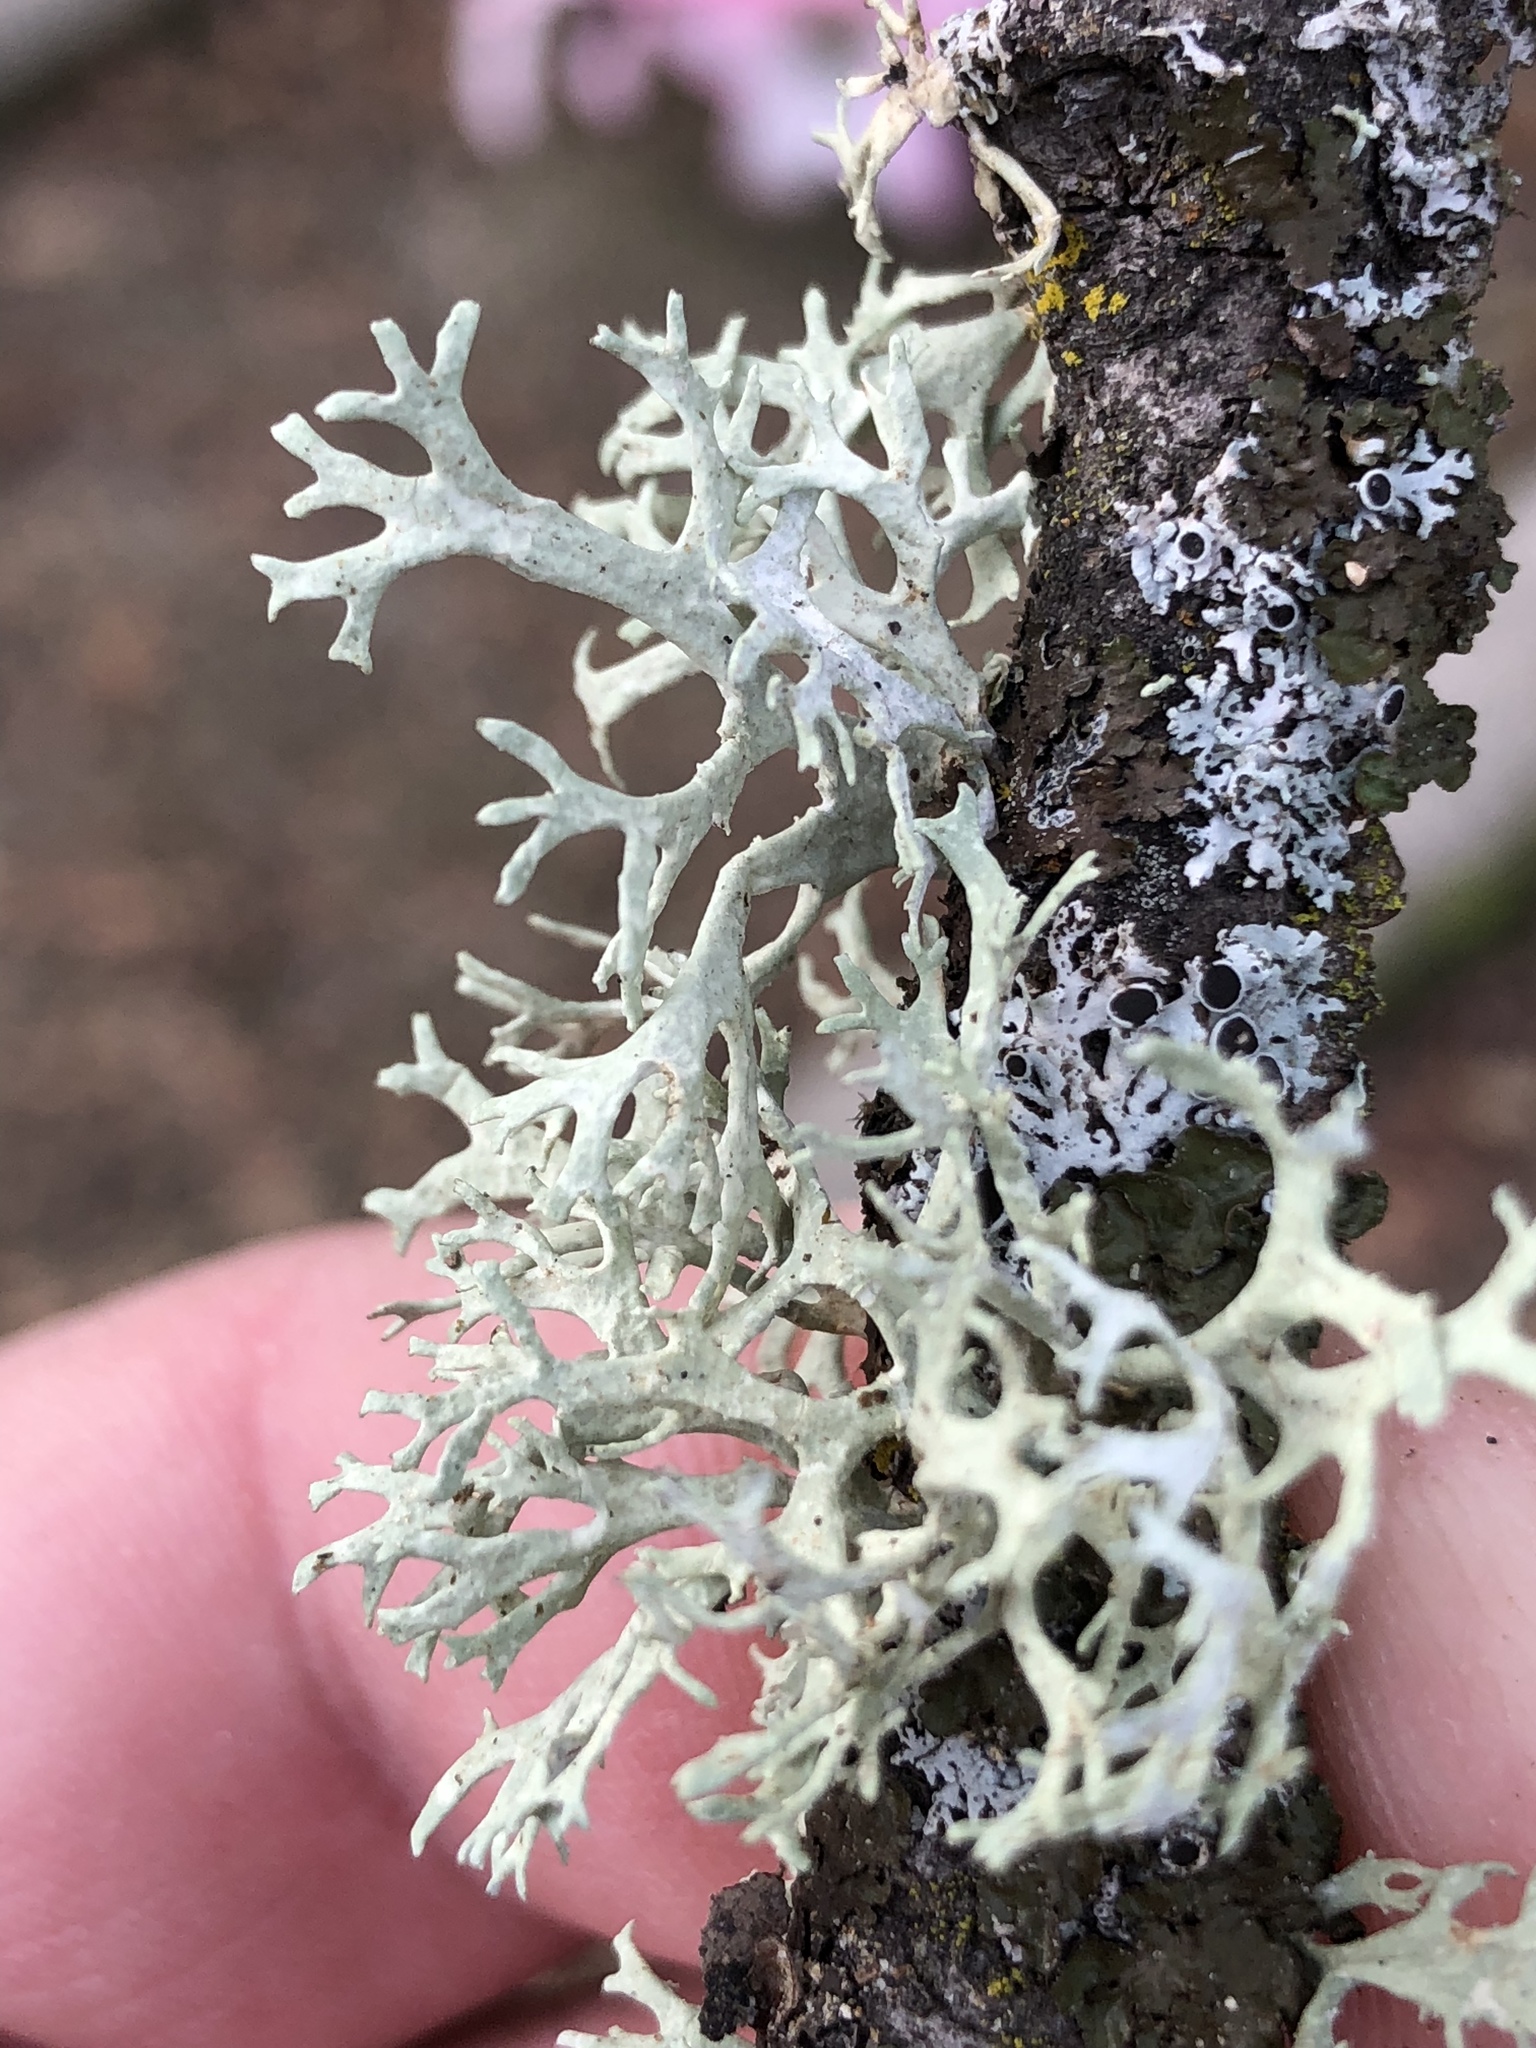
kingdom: Fungi
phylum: Ascomycota
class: Lecanoromycetes
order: Lecanorales
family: Parmeliaceae
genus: Evernia
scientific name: Evernia prunastri
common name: Oak moss
